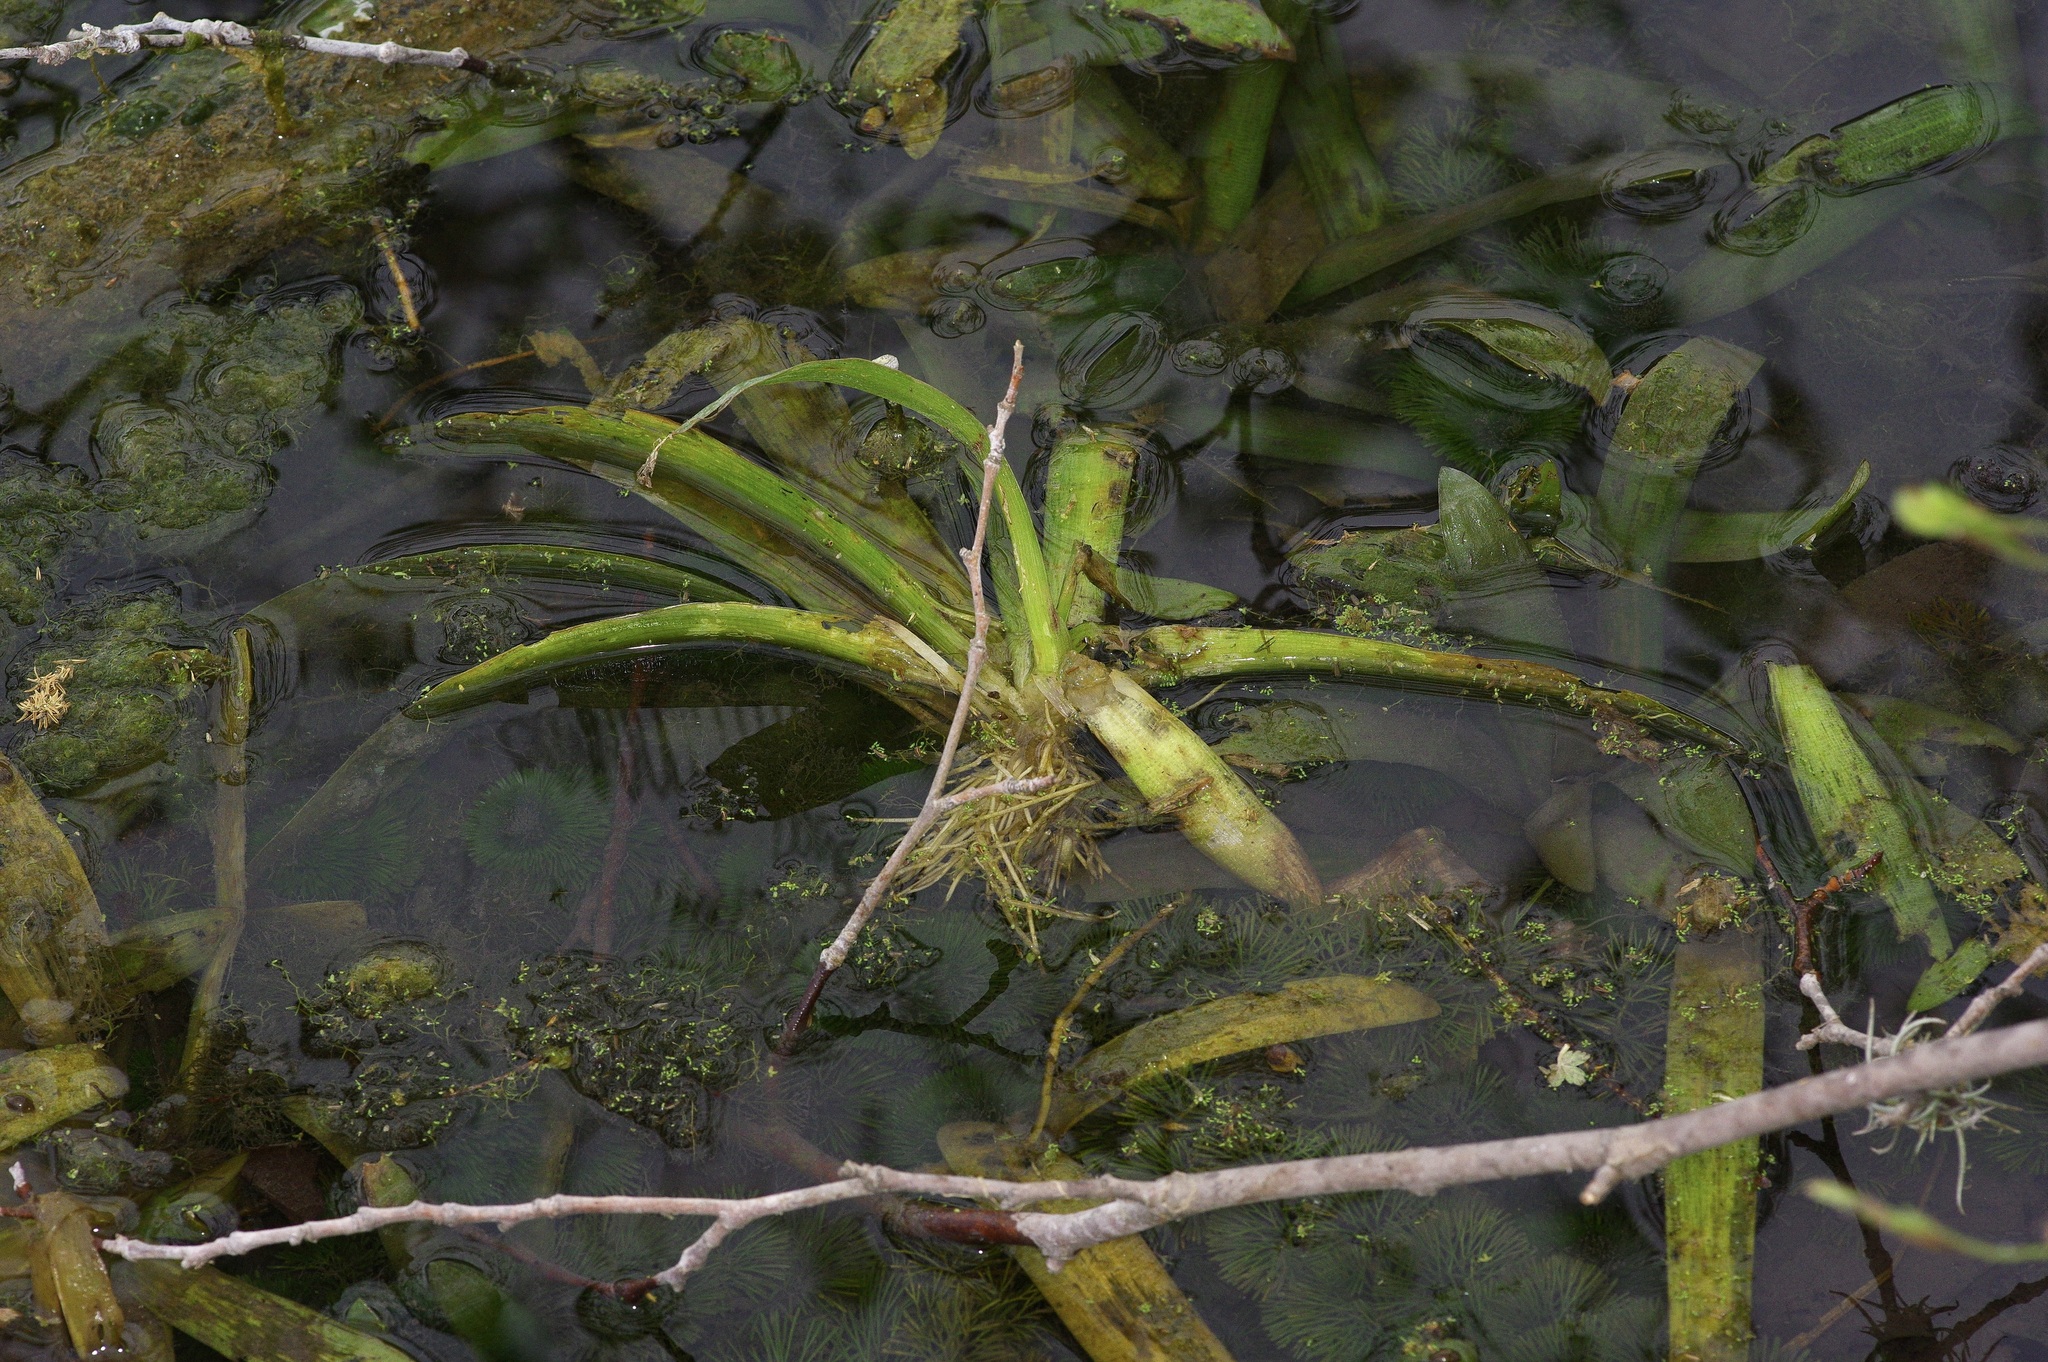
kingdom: Plantae
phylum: Tracheophyta
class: Liliopsida
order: Alismatales
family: Alismataceae
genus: Sagittaria
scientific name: Sagittaria platyphylla
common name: Broad-leaf arrowhead
